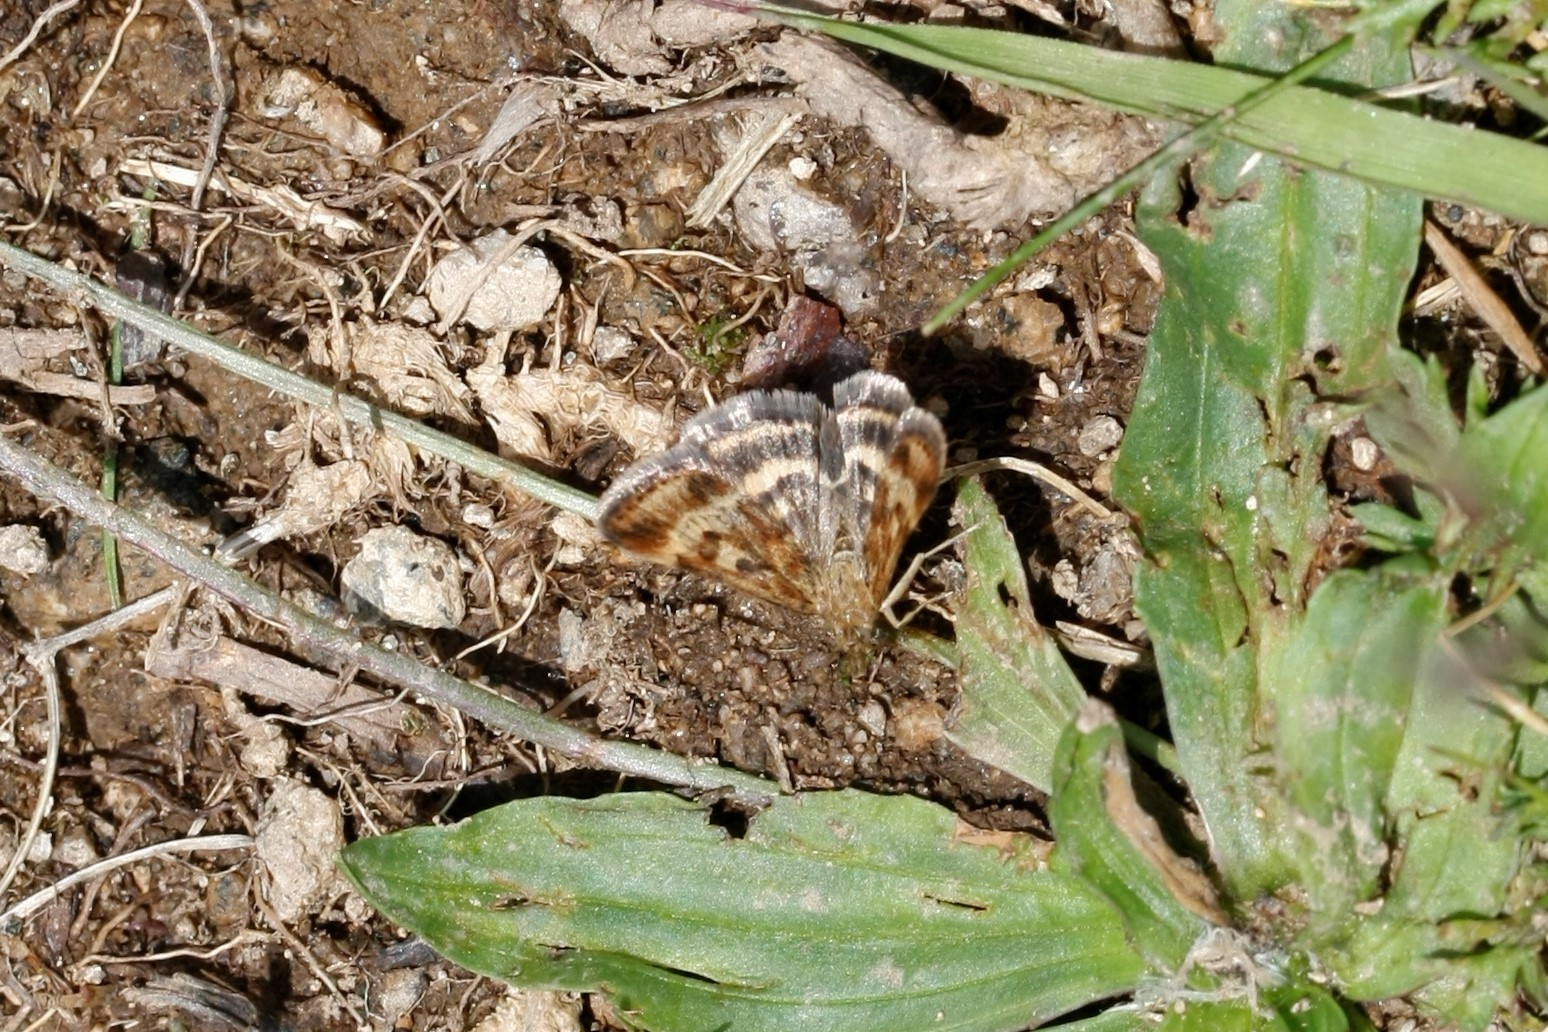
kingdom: Animalia
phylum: Arthropoda
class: Insecta
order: Lepidoptera
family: Crambidae
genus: Pyrausta
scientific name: Pyrausta despicata
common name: Straw-barred pearl
